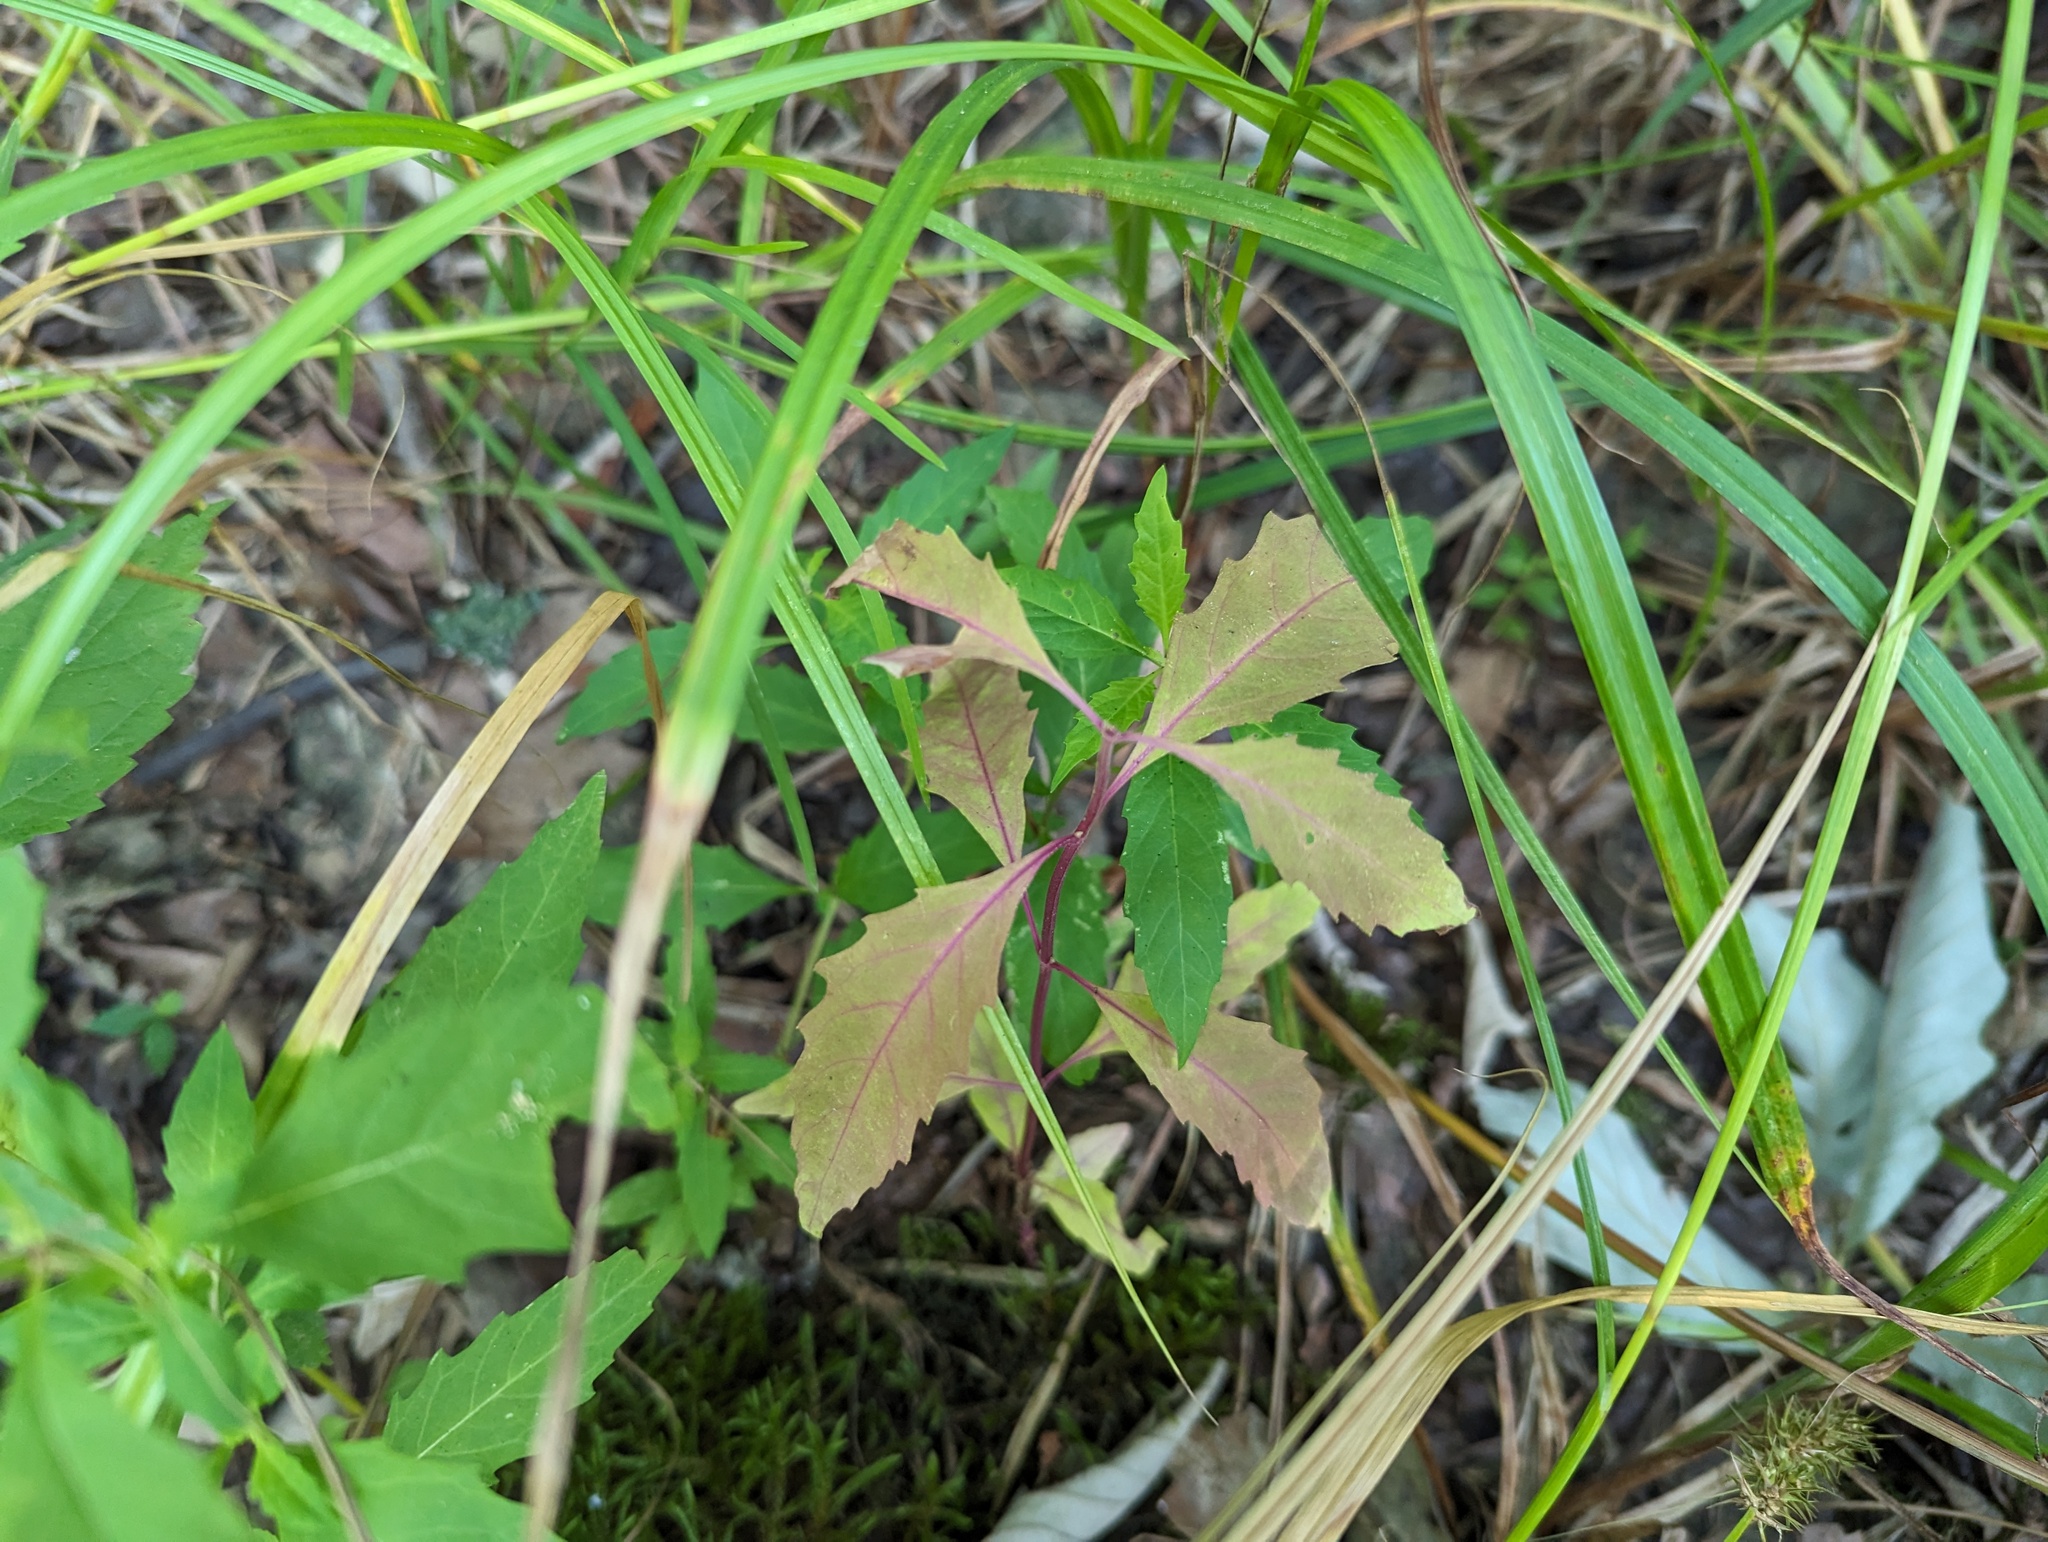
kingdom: Plantae
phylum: Tracheophyta
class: Magnoliopsida
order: Lamiales
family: Lamiaceae
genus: Lycopus
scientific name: Lycopus rubellus
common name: Stalked bugleweed
